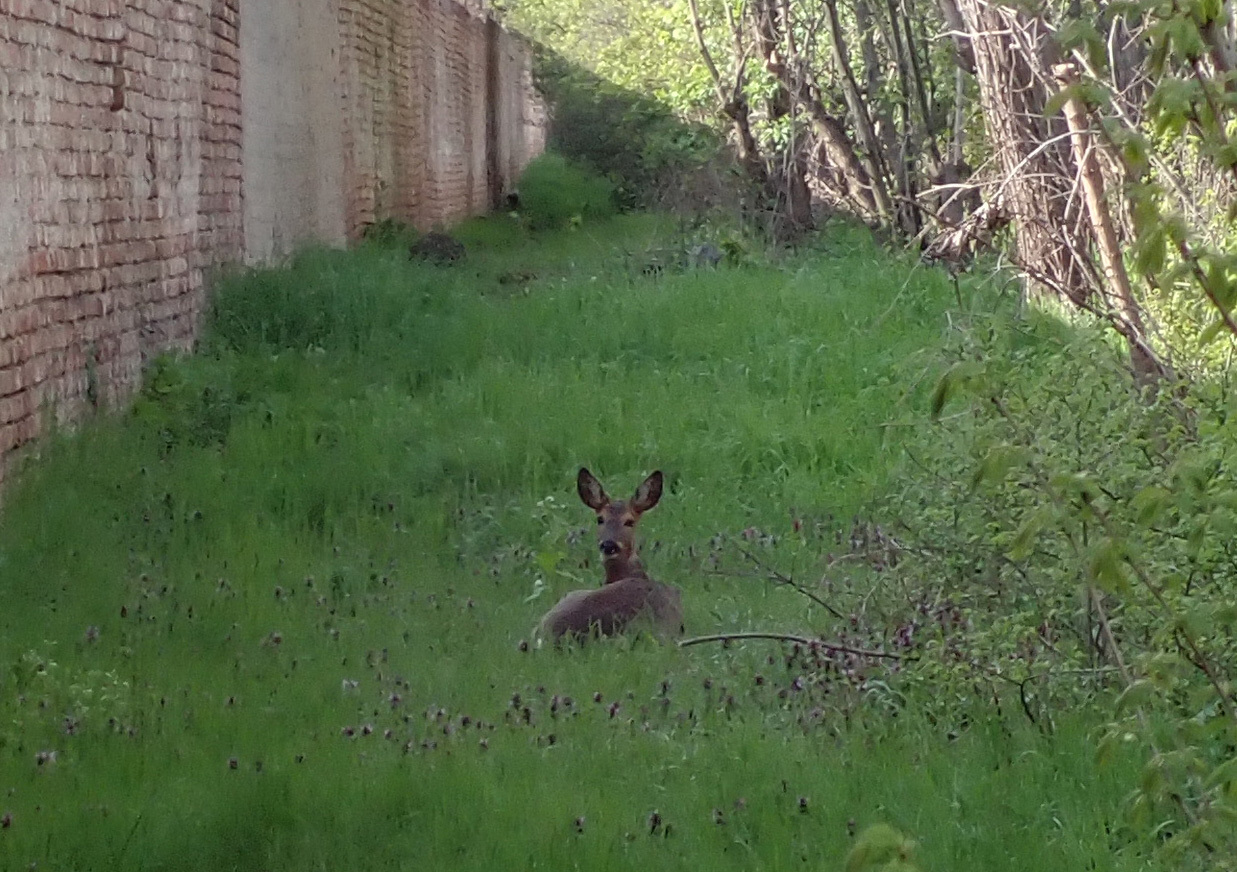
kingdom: Animalia
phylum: Chordata
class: Mammalia
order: Artiodactyla
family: Cervidae
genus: Capreolus
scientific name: Capreolus capreolus
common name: Western roe deer
